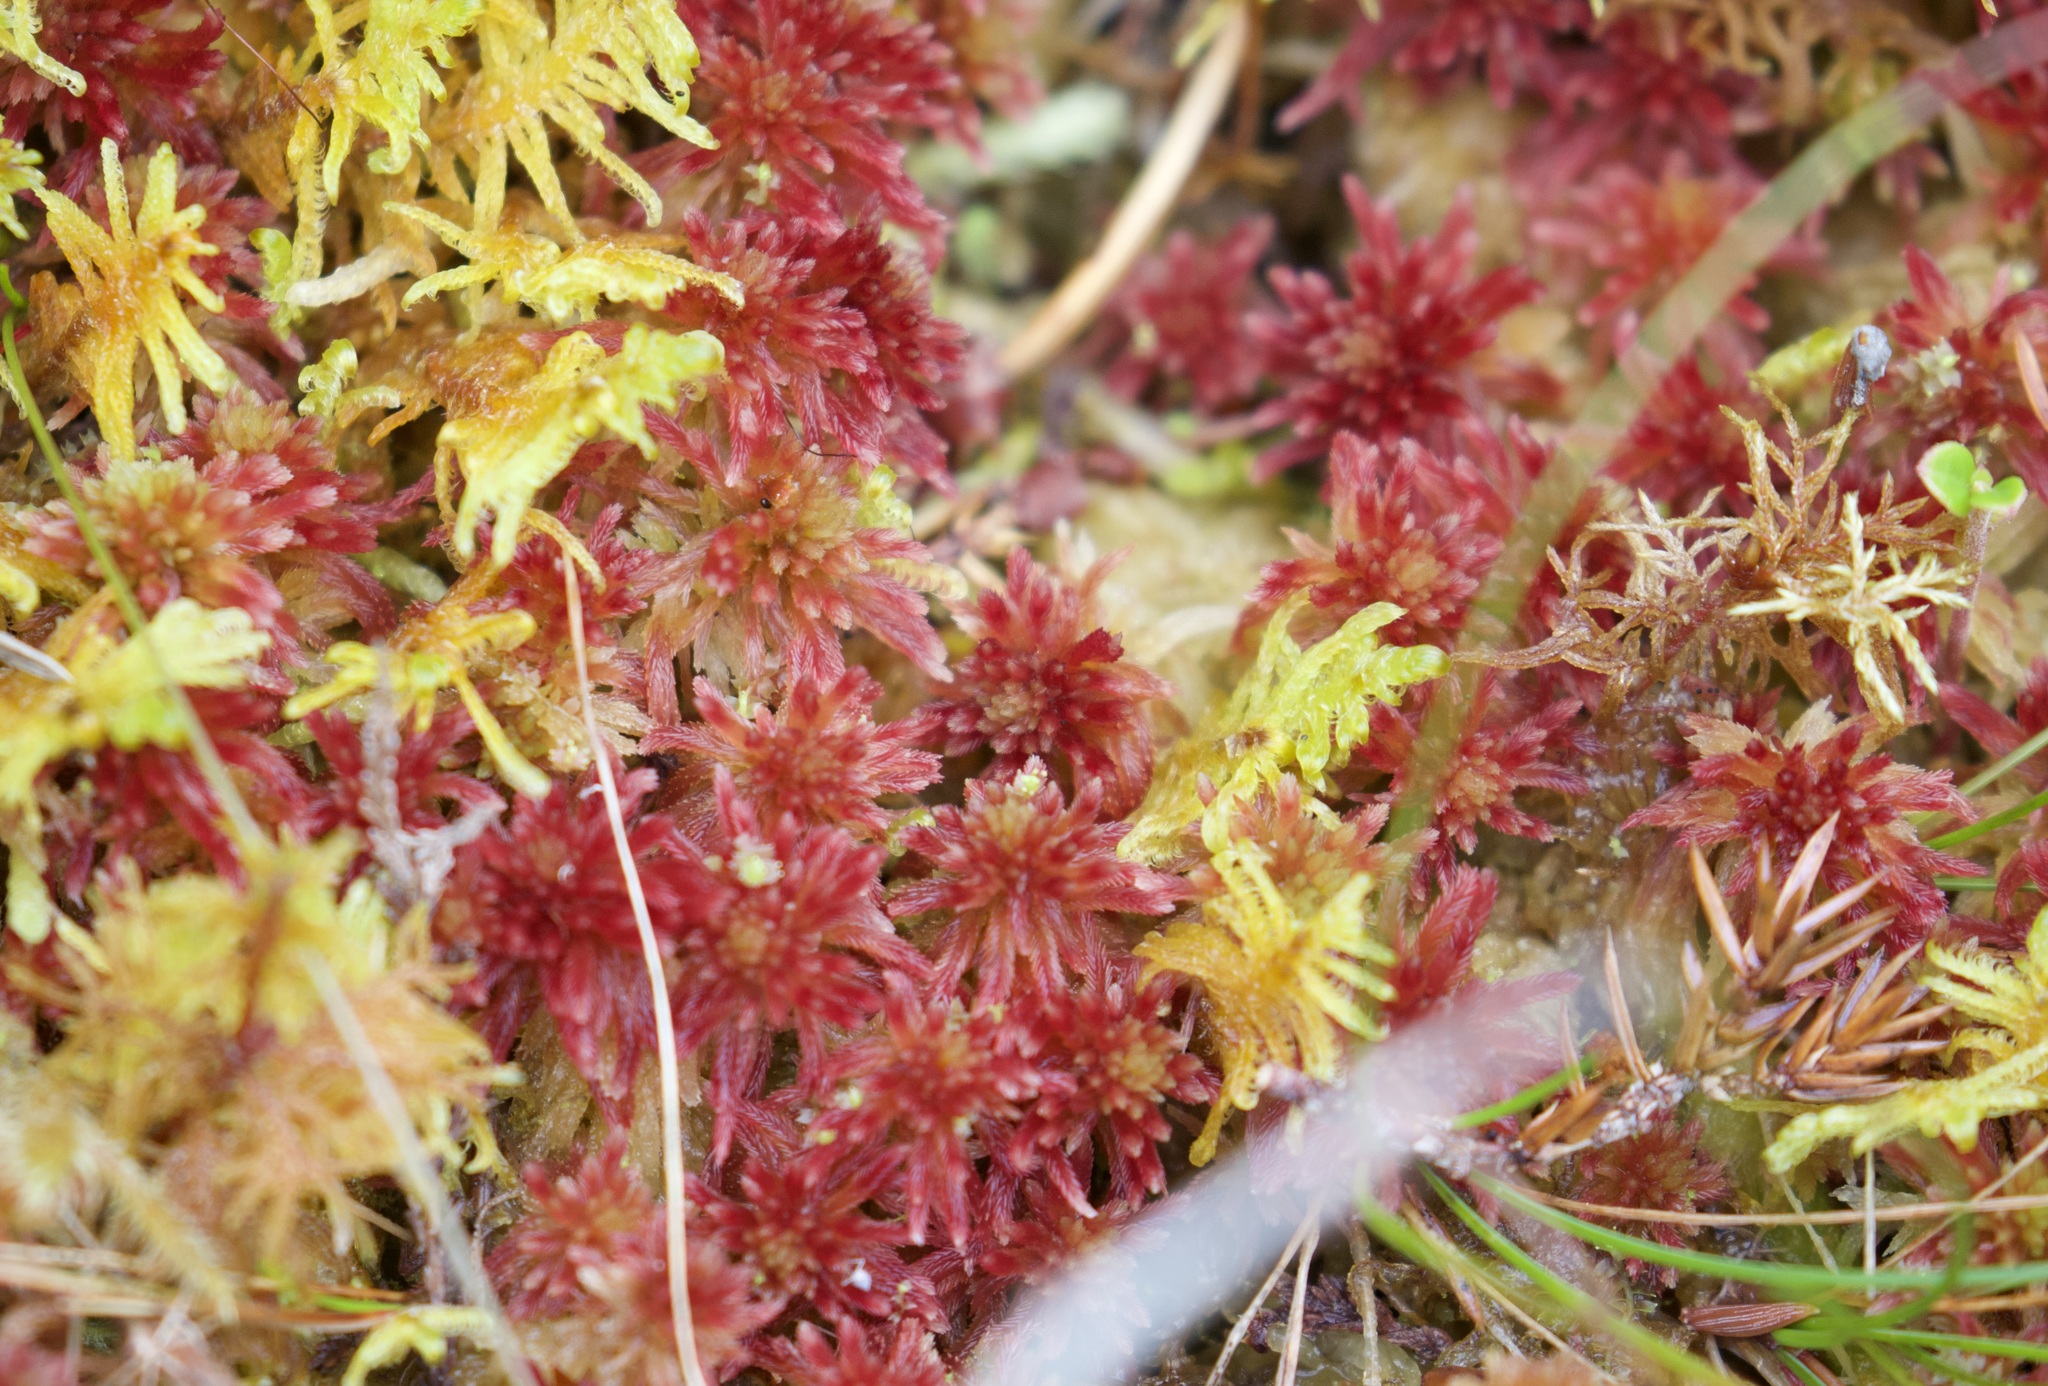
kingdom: Plantae
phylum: Bryophyta
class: Sphagnopsida
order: Sphagnales
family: Sphagnaceae
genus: Sphagnum
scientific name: Sphagnum quinquefarium
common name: Five-ranked peat moss
